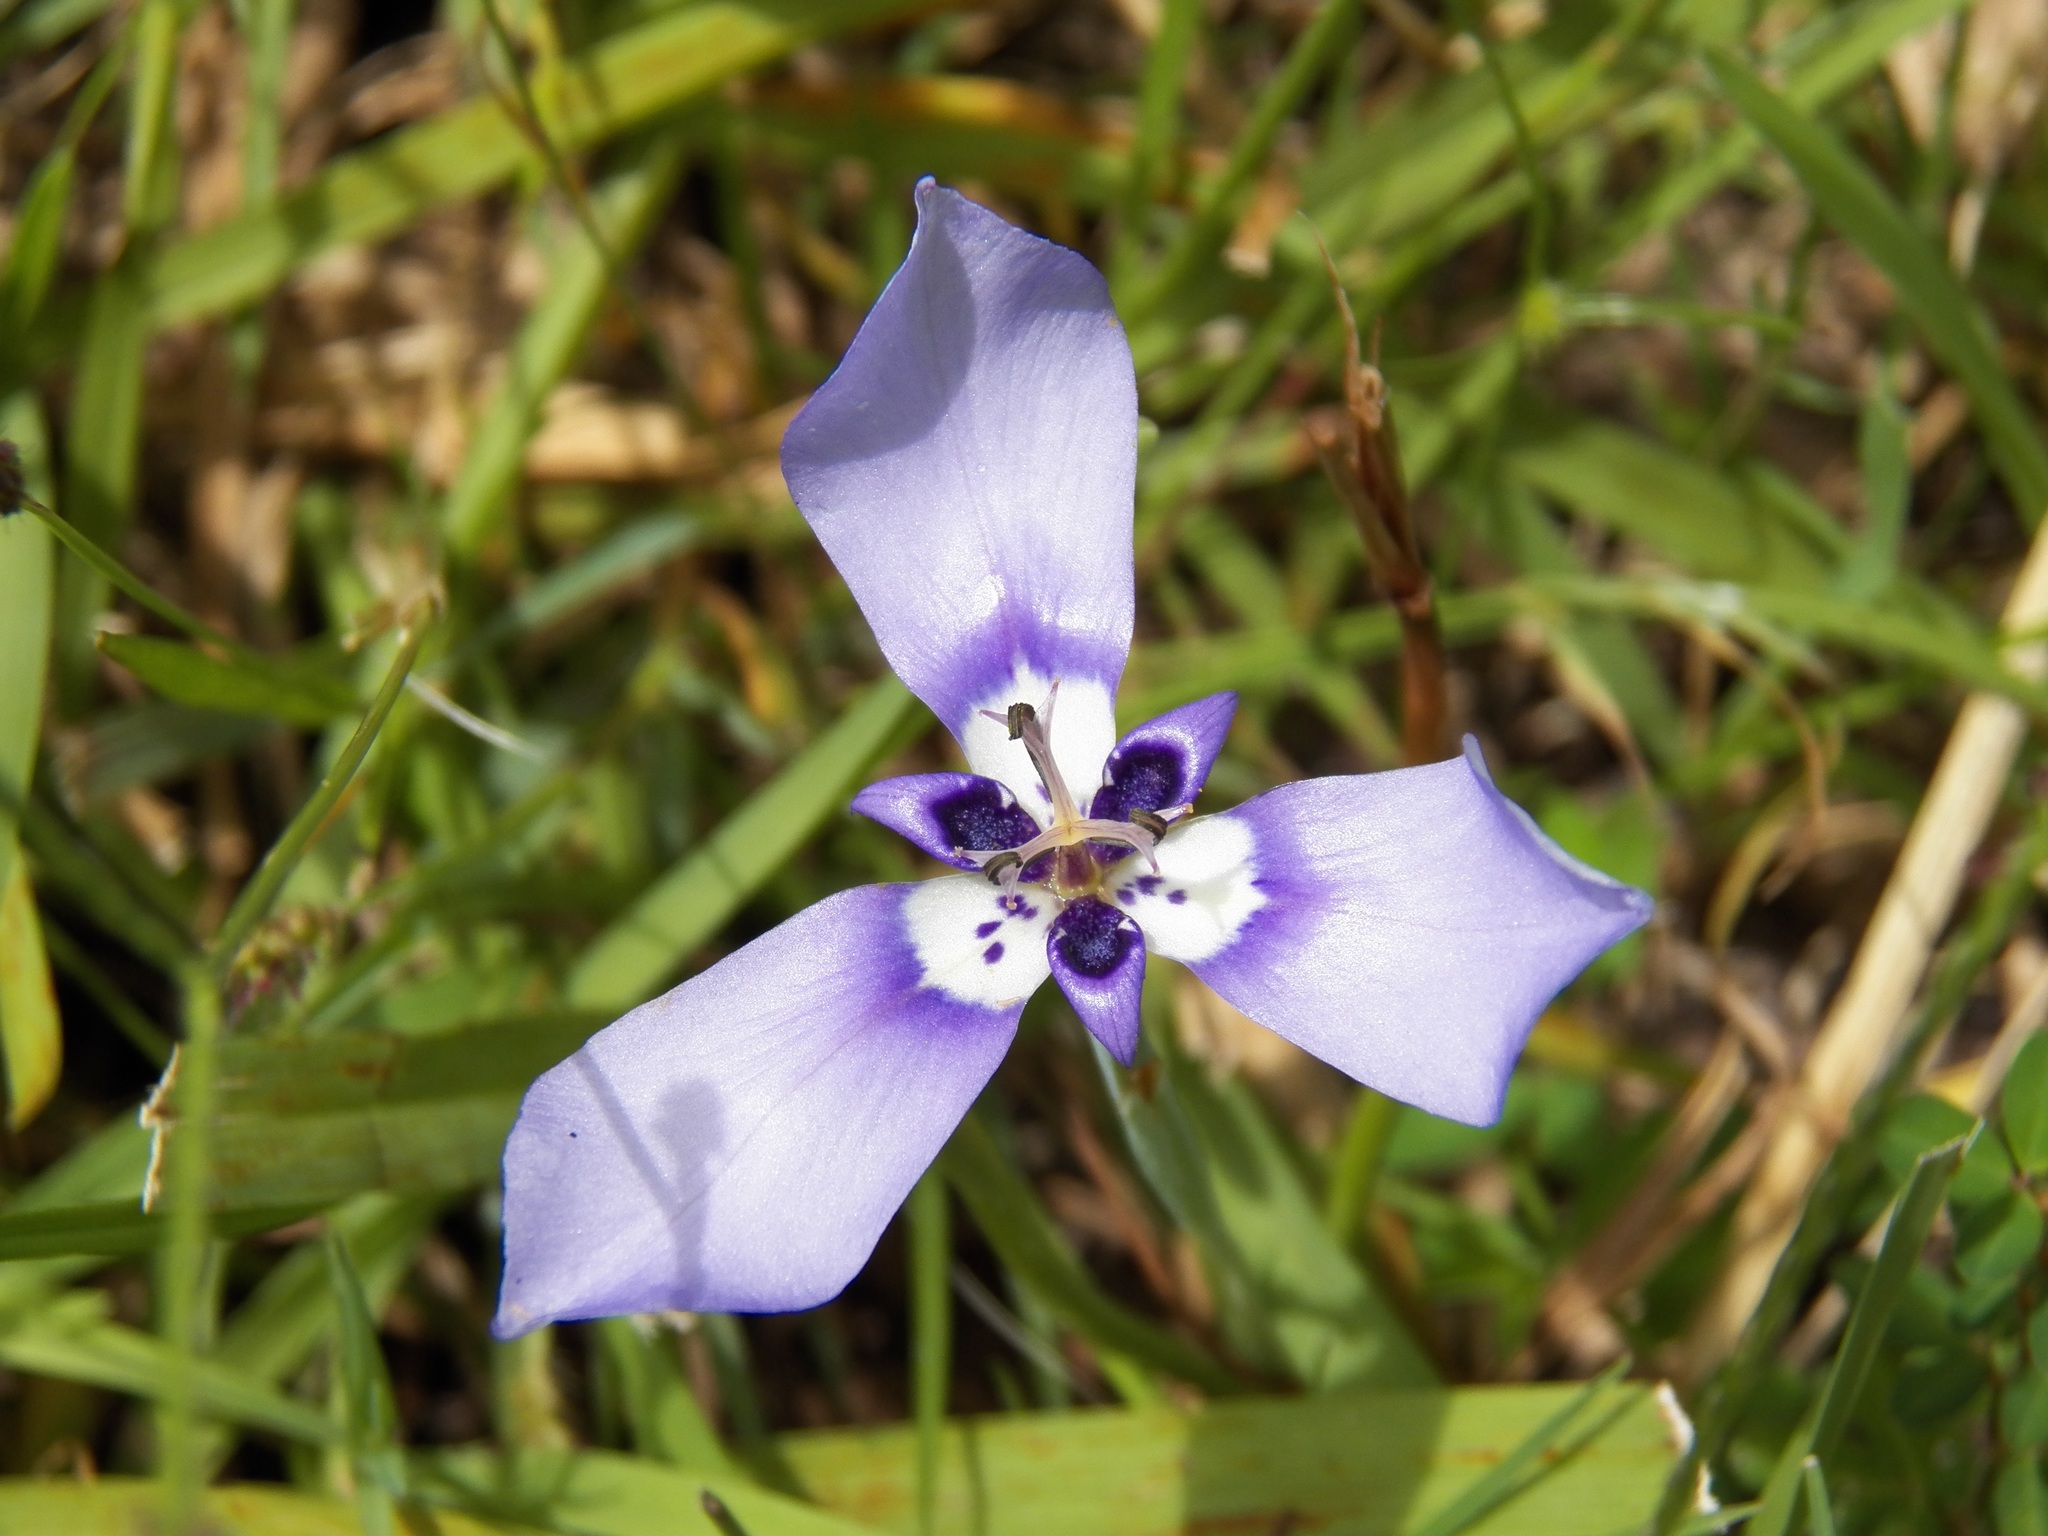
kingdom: Plantae
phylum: Tracheophyta
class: Liliopsida
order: Asparagales
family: Iridaceae
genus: Herbertia
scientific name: Herbertia lahue
